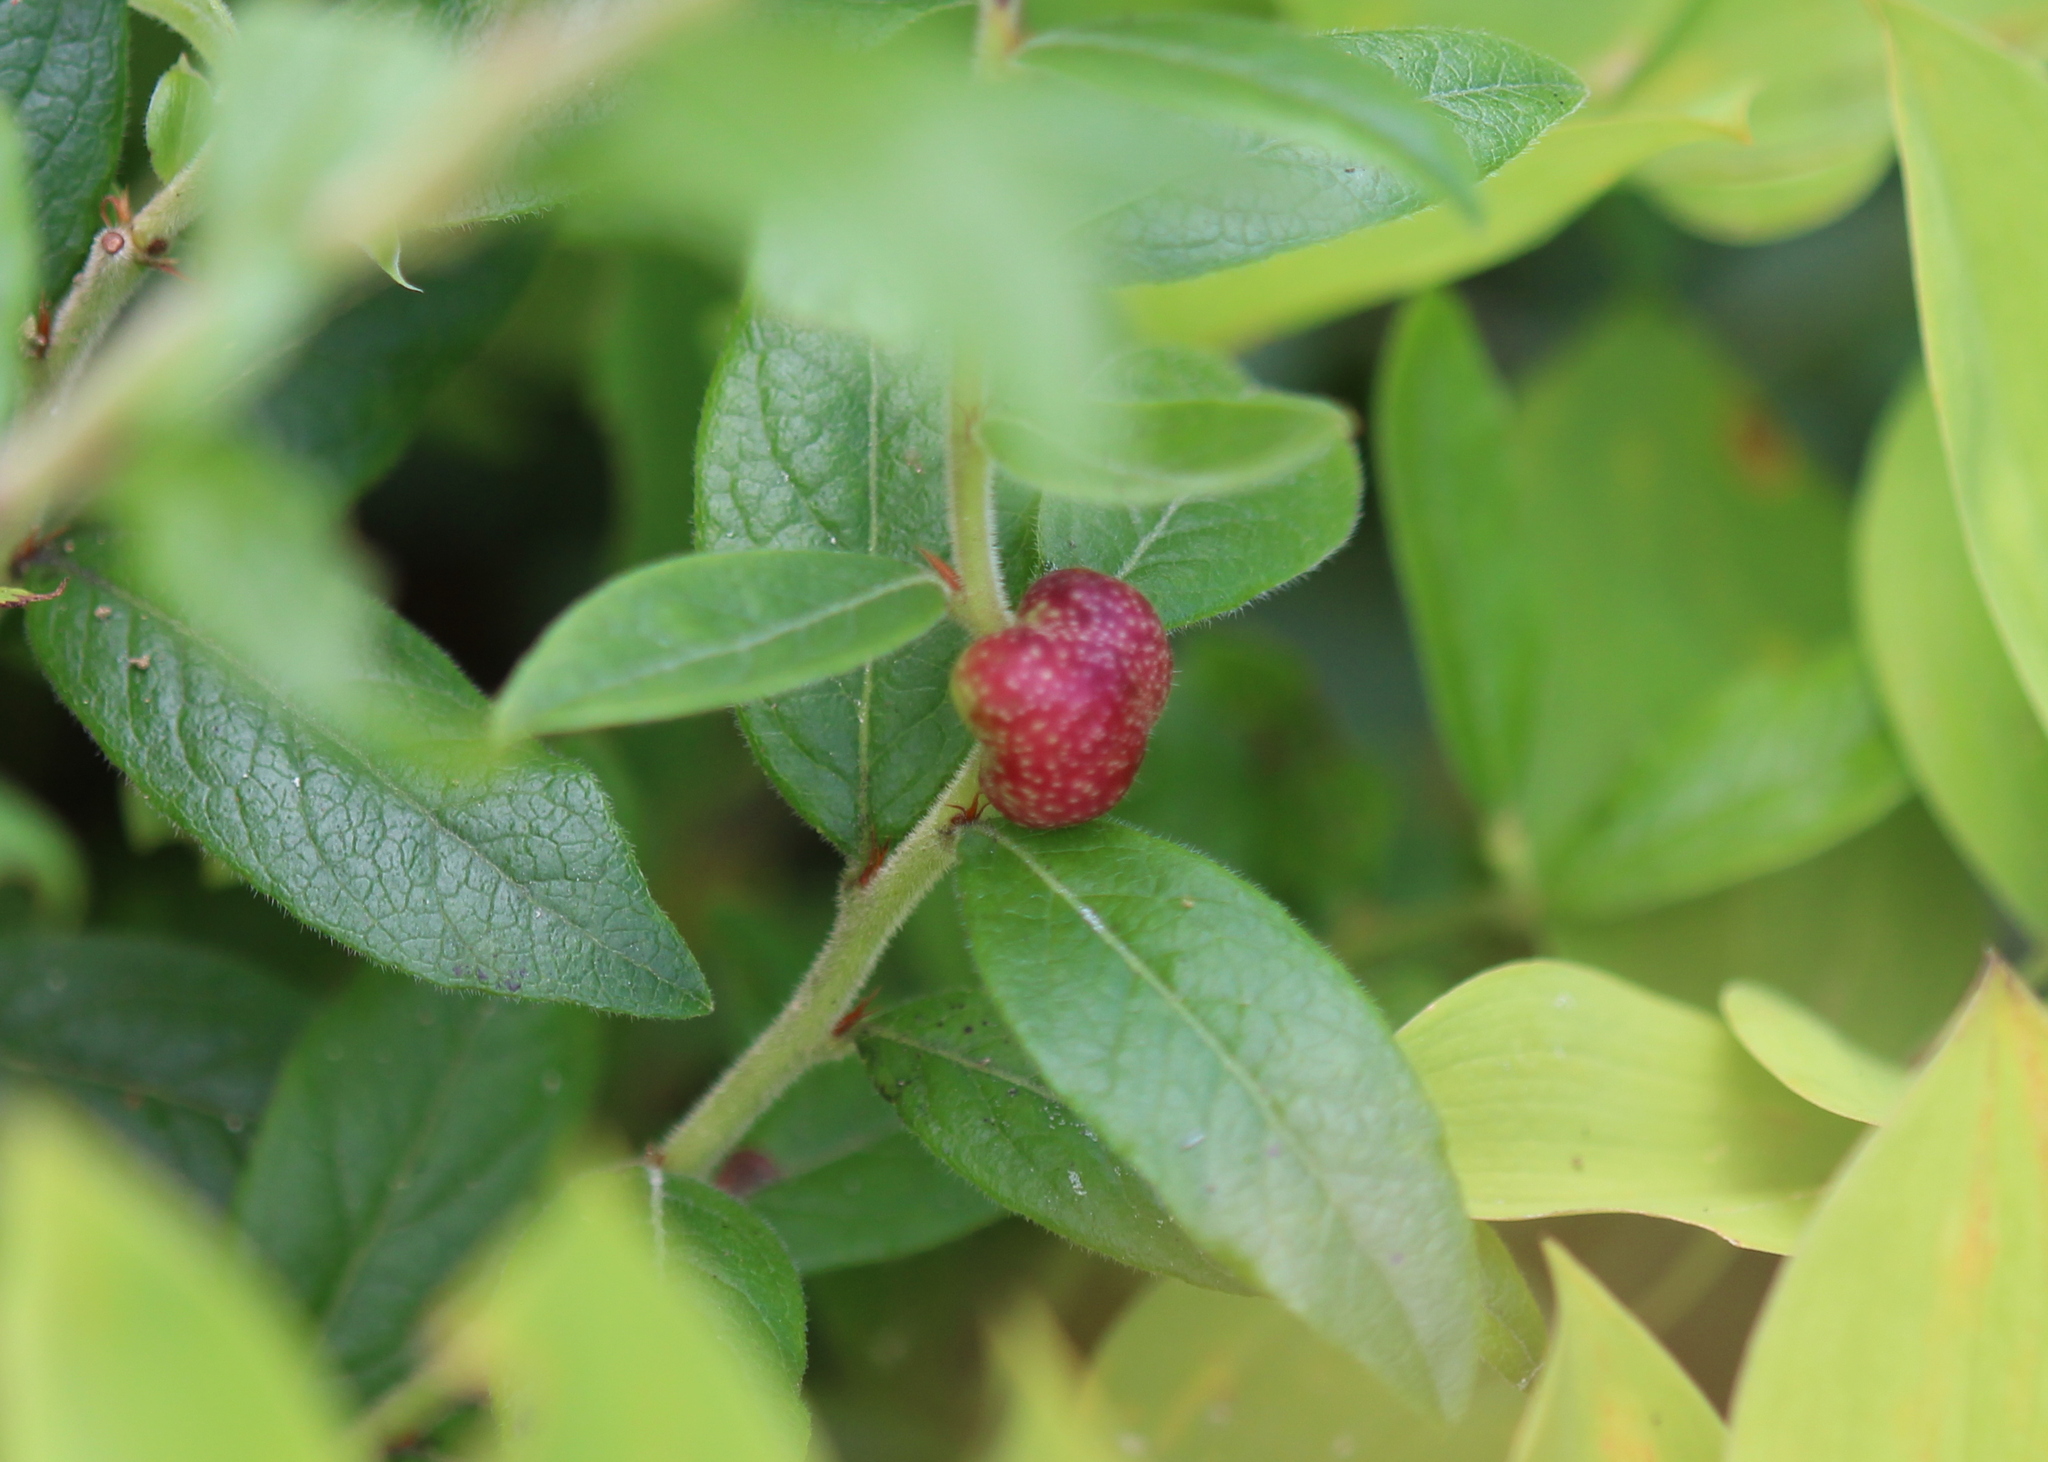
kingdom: Animalia
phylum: Arthropoda
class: Insecta
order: Hymenoptera
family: Pteromalidae
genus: Hemadas
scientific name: Hemadas nubilipennis
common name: Blueberry stem gall wasp
